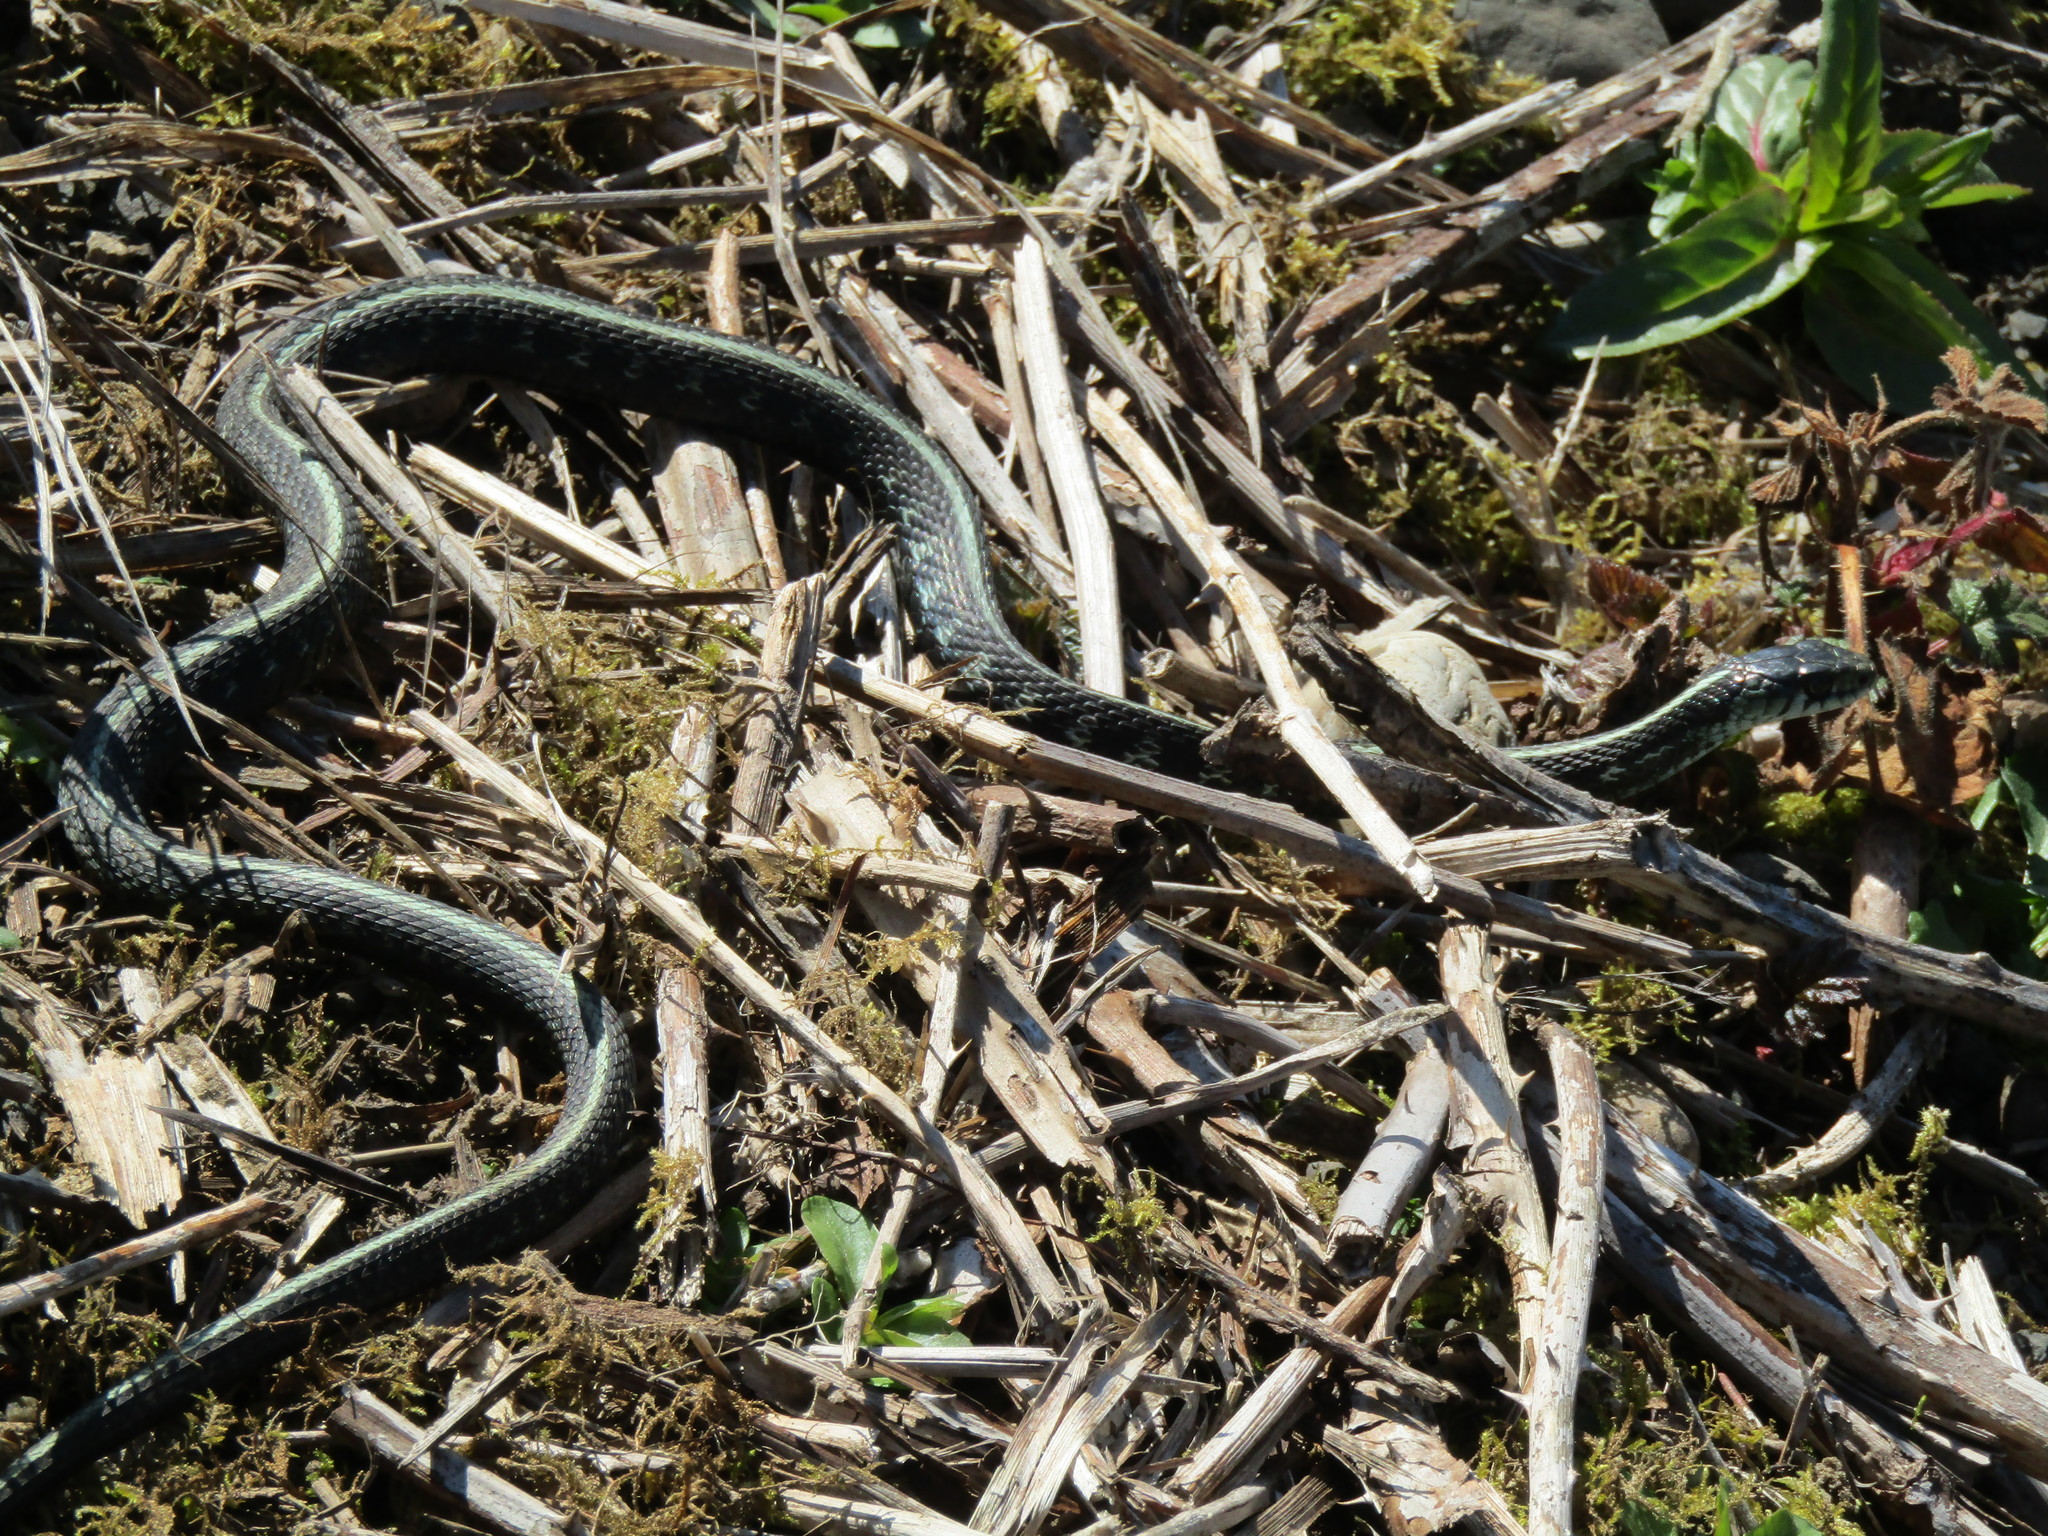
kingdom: Animalia
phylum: Chordata
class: Squamata
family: Colubridae
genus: Thamnophis
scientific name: Thamnophis sirtalis
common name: Common garter snake
